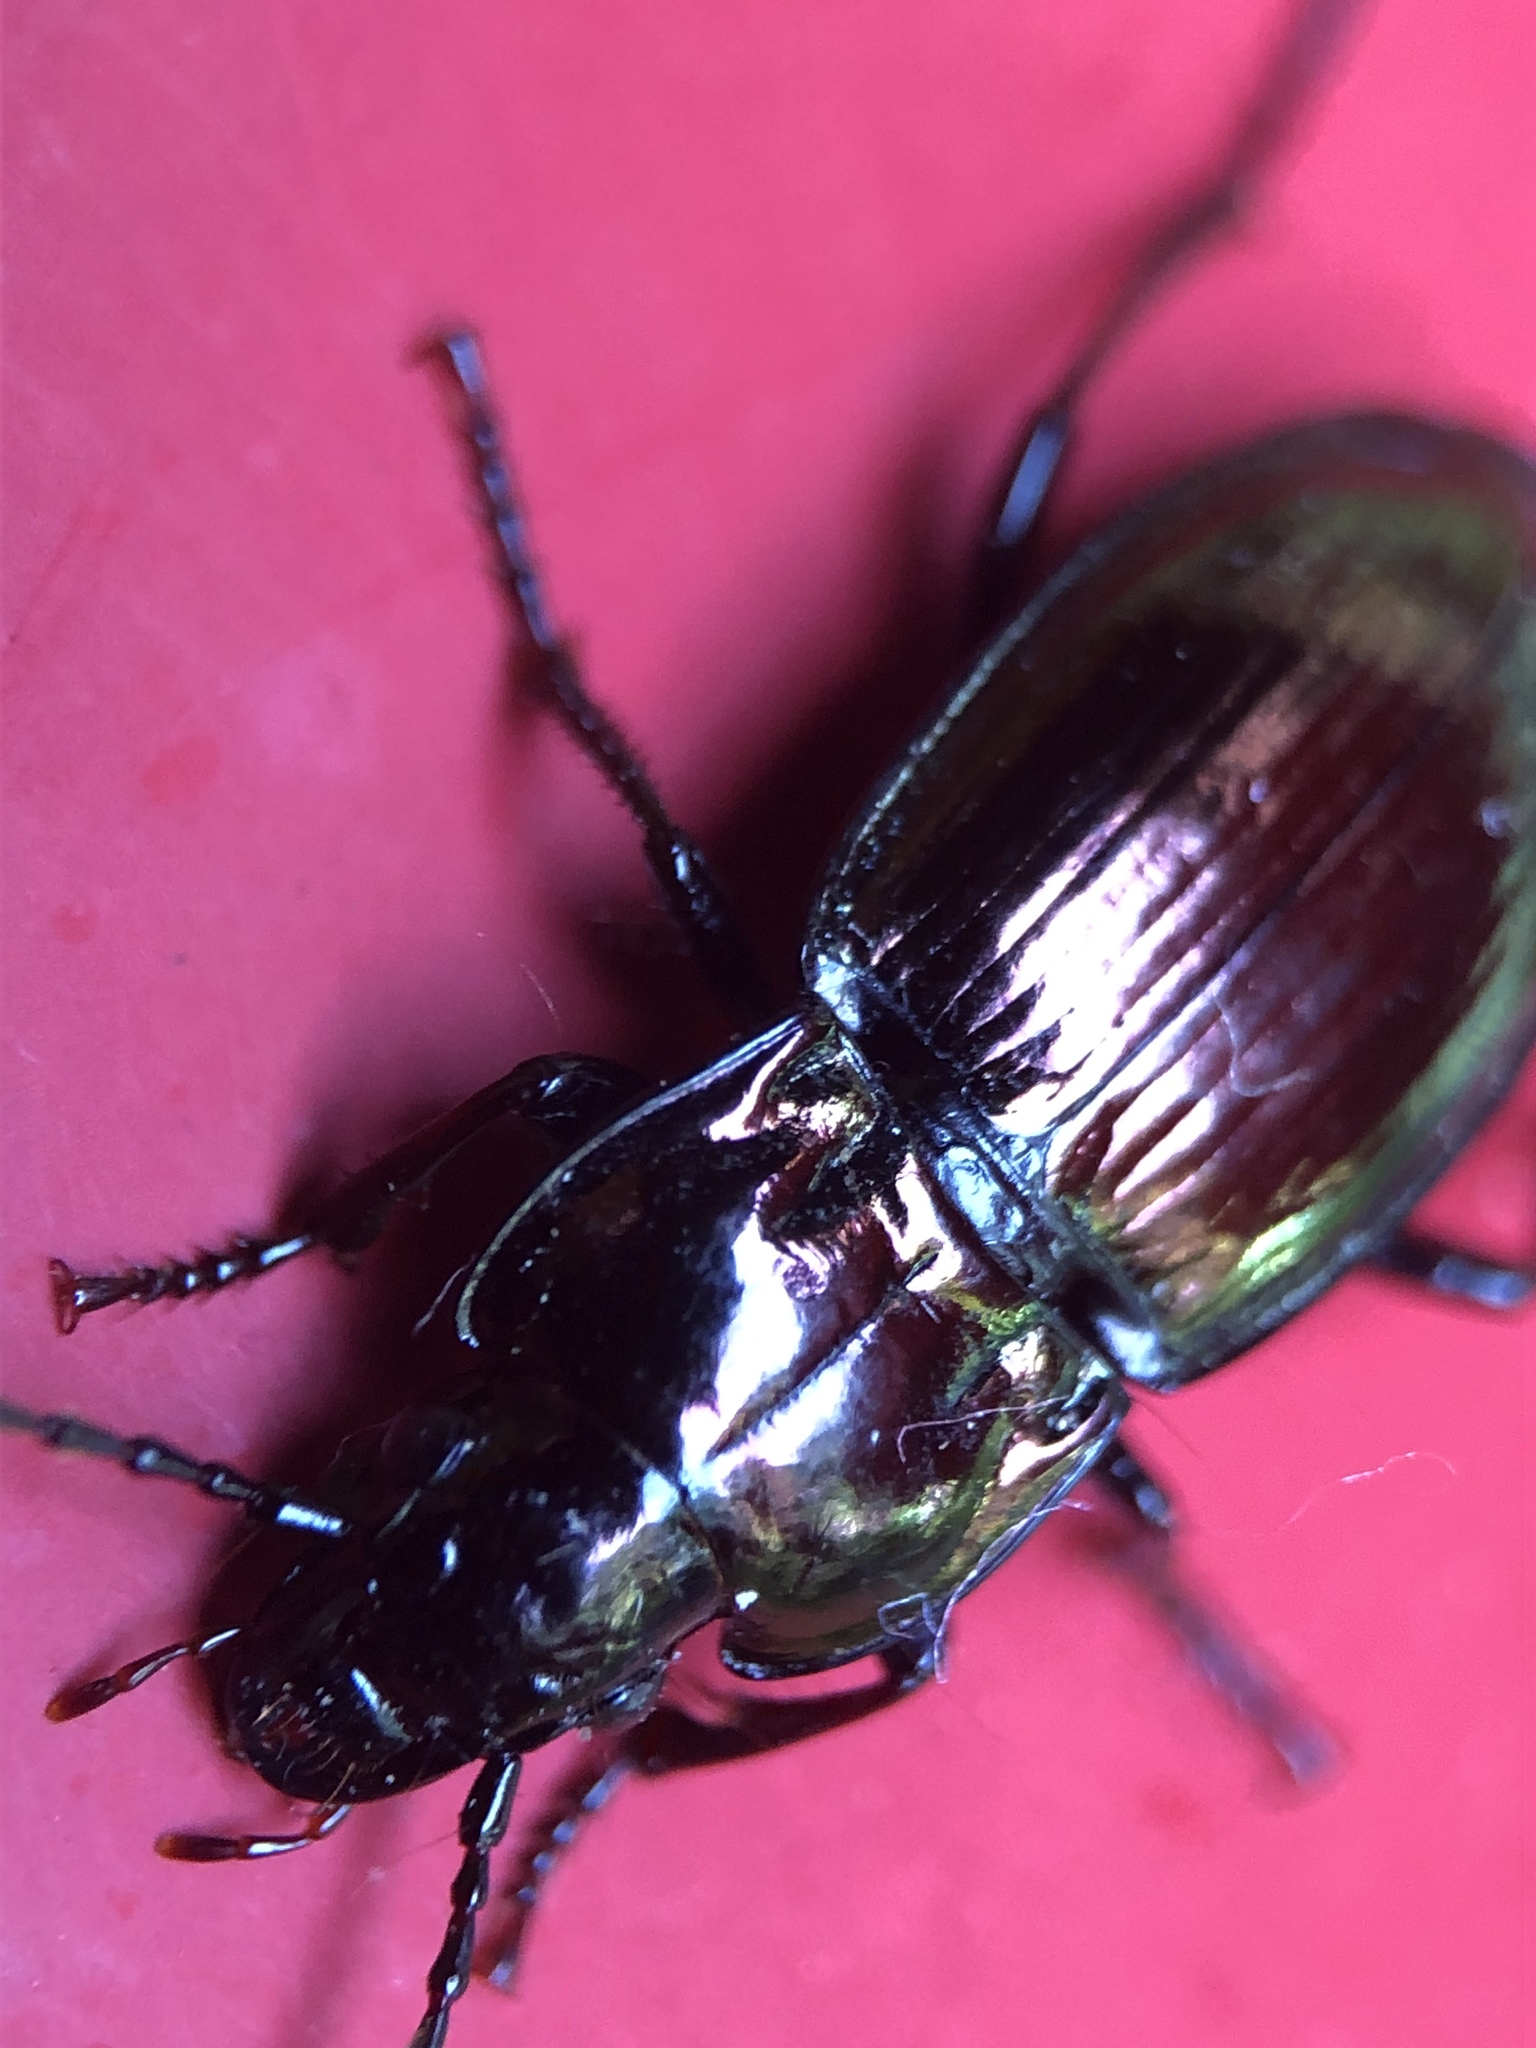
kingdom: Animalia
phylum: Arthropoda
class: Insecta
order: Coleoptera
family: Carabidae
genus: Pterostichus
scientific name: Pterostichus burmeisteri
